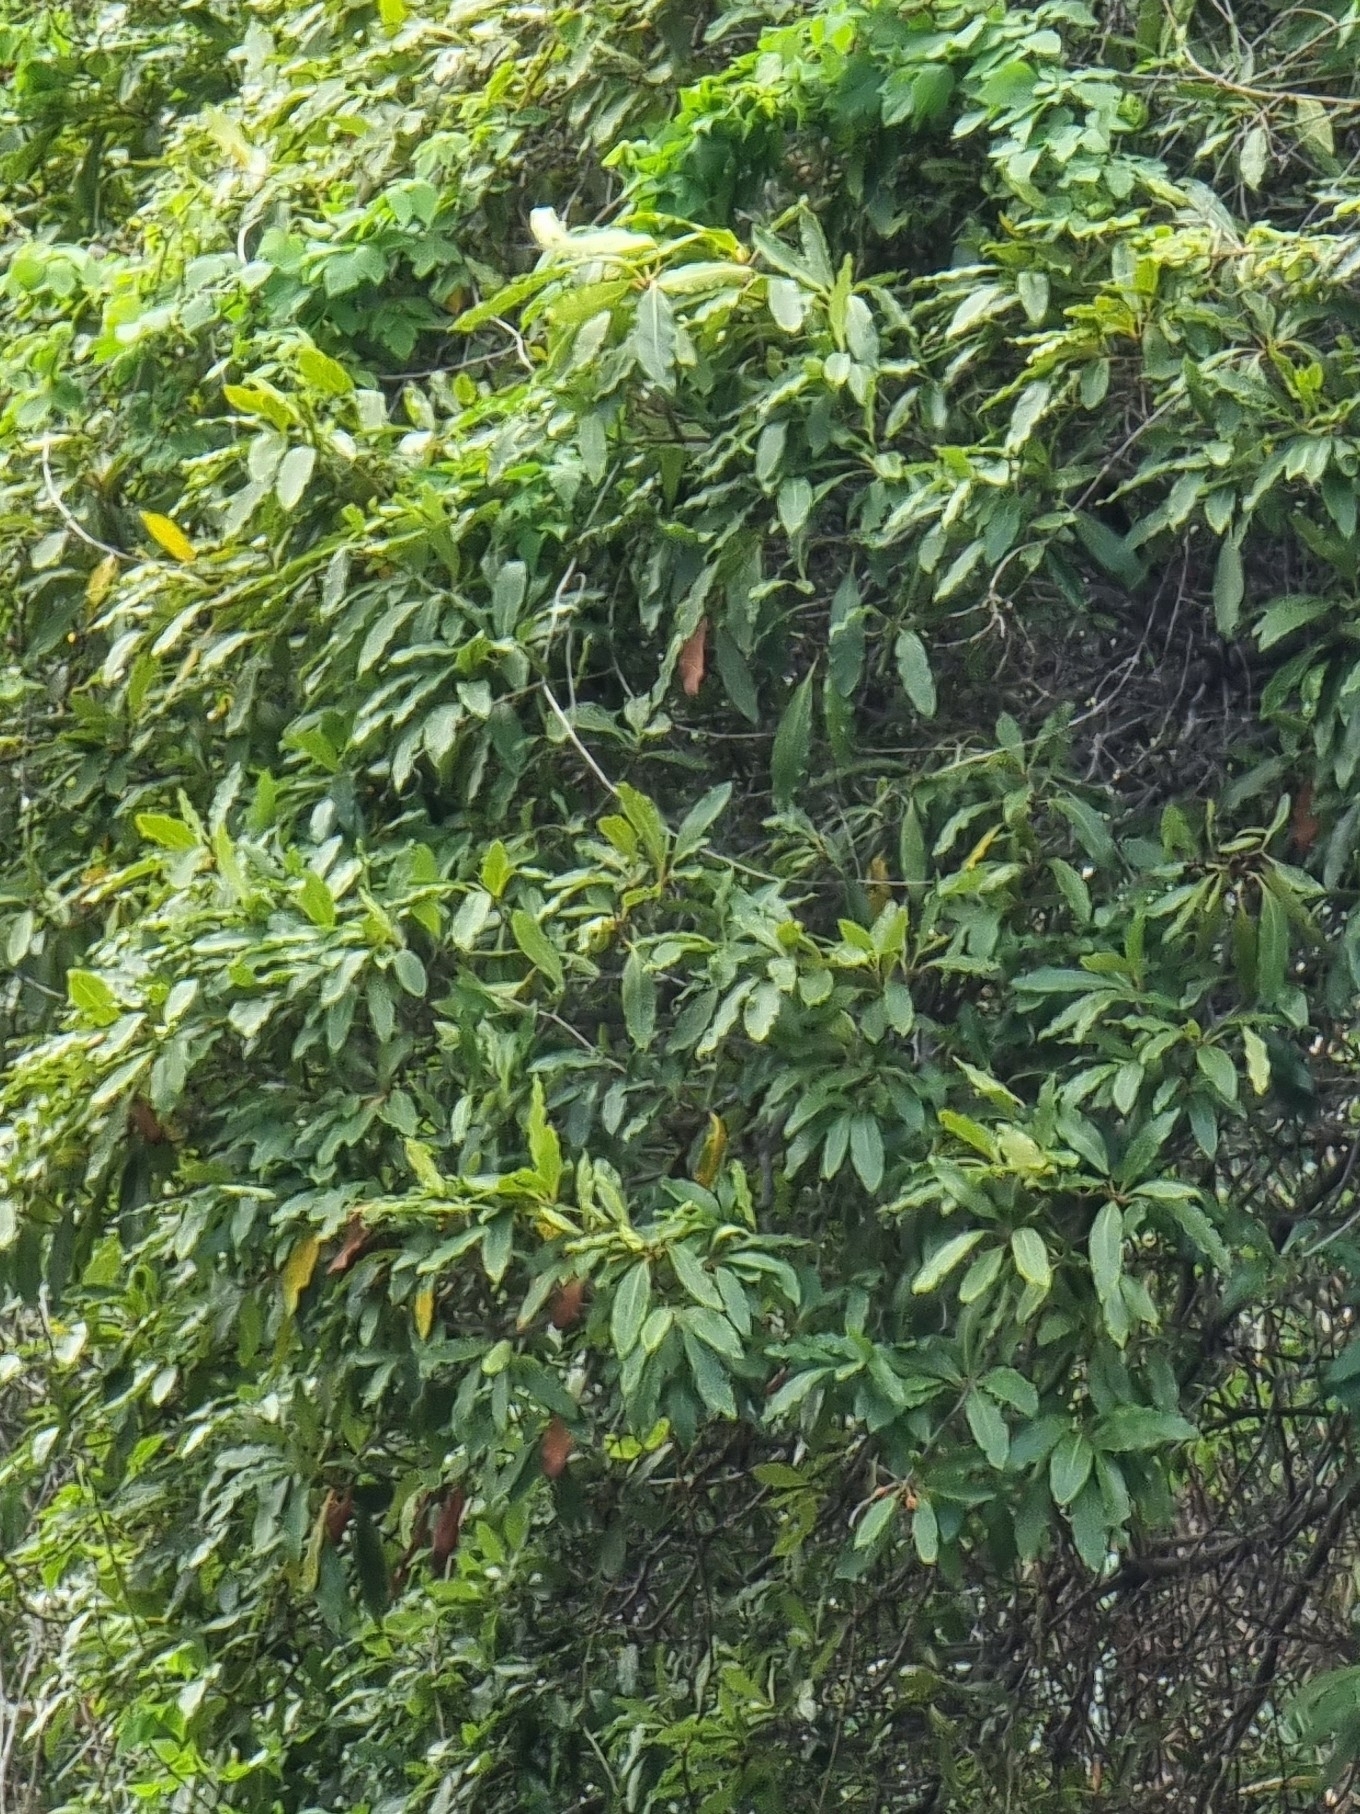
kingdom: Plantae
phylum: Tracheophyta
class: Magnoliopsida
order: Apiales
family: Pittosporaceae
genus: Pittosporum
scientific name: Pittosporum undulatum
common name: Australian cheesewood
